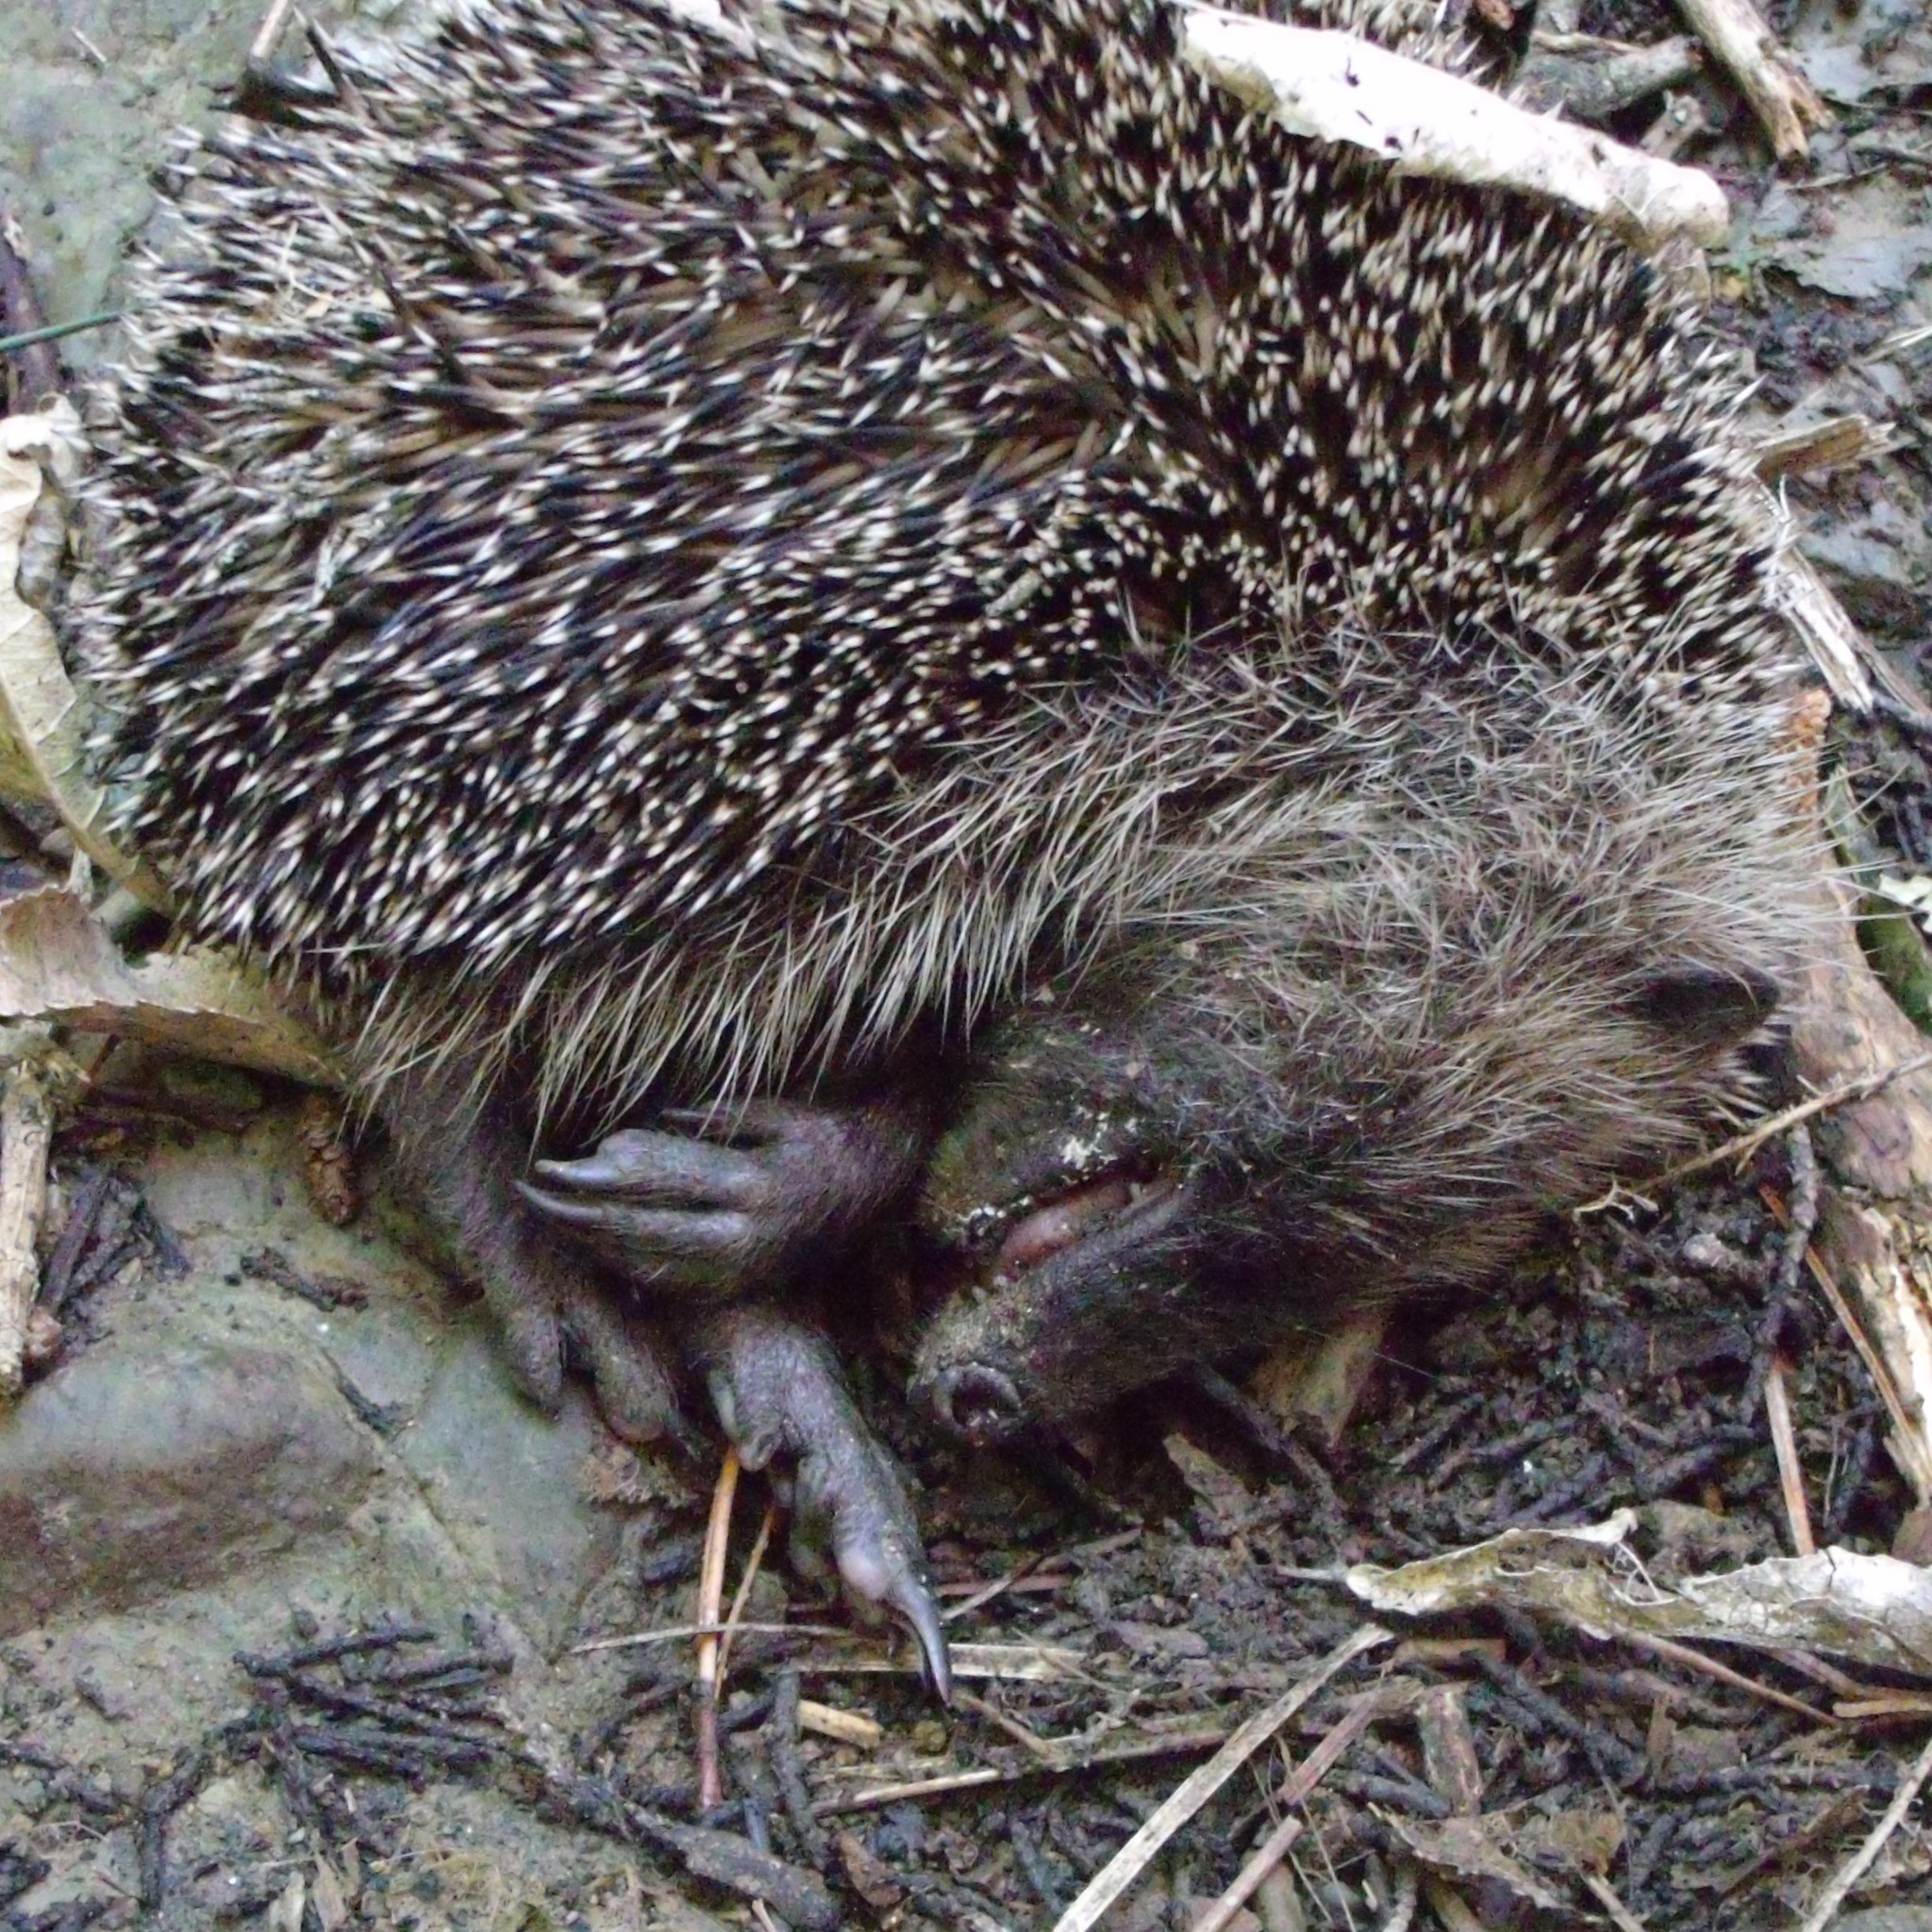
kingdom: Animalia
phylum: Chordata
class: Mammalia
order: Erinaceomorpha
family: Erinaceidae
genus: Erinaceus
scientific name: Erinaceus europaeus
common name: West european hedgehog
